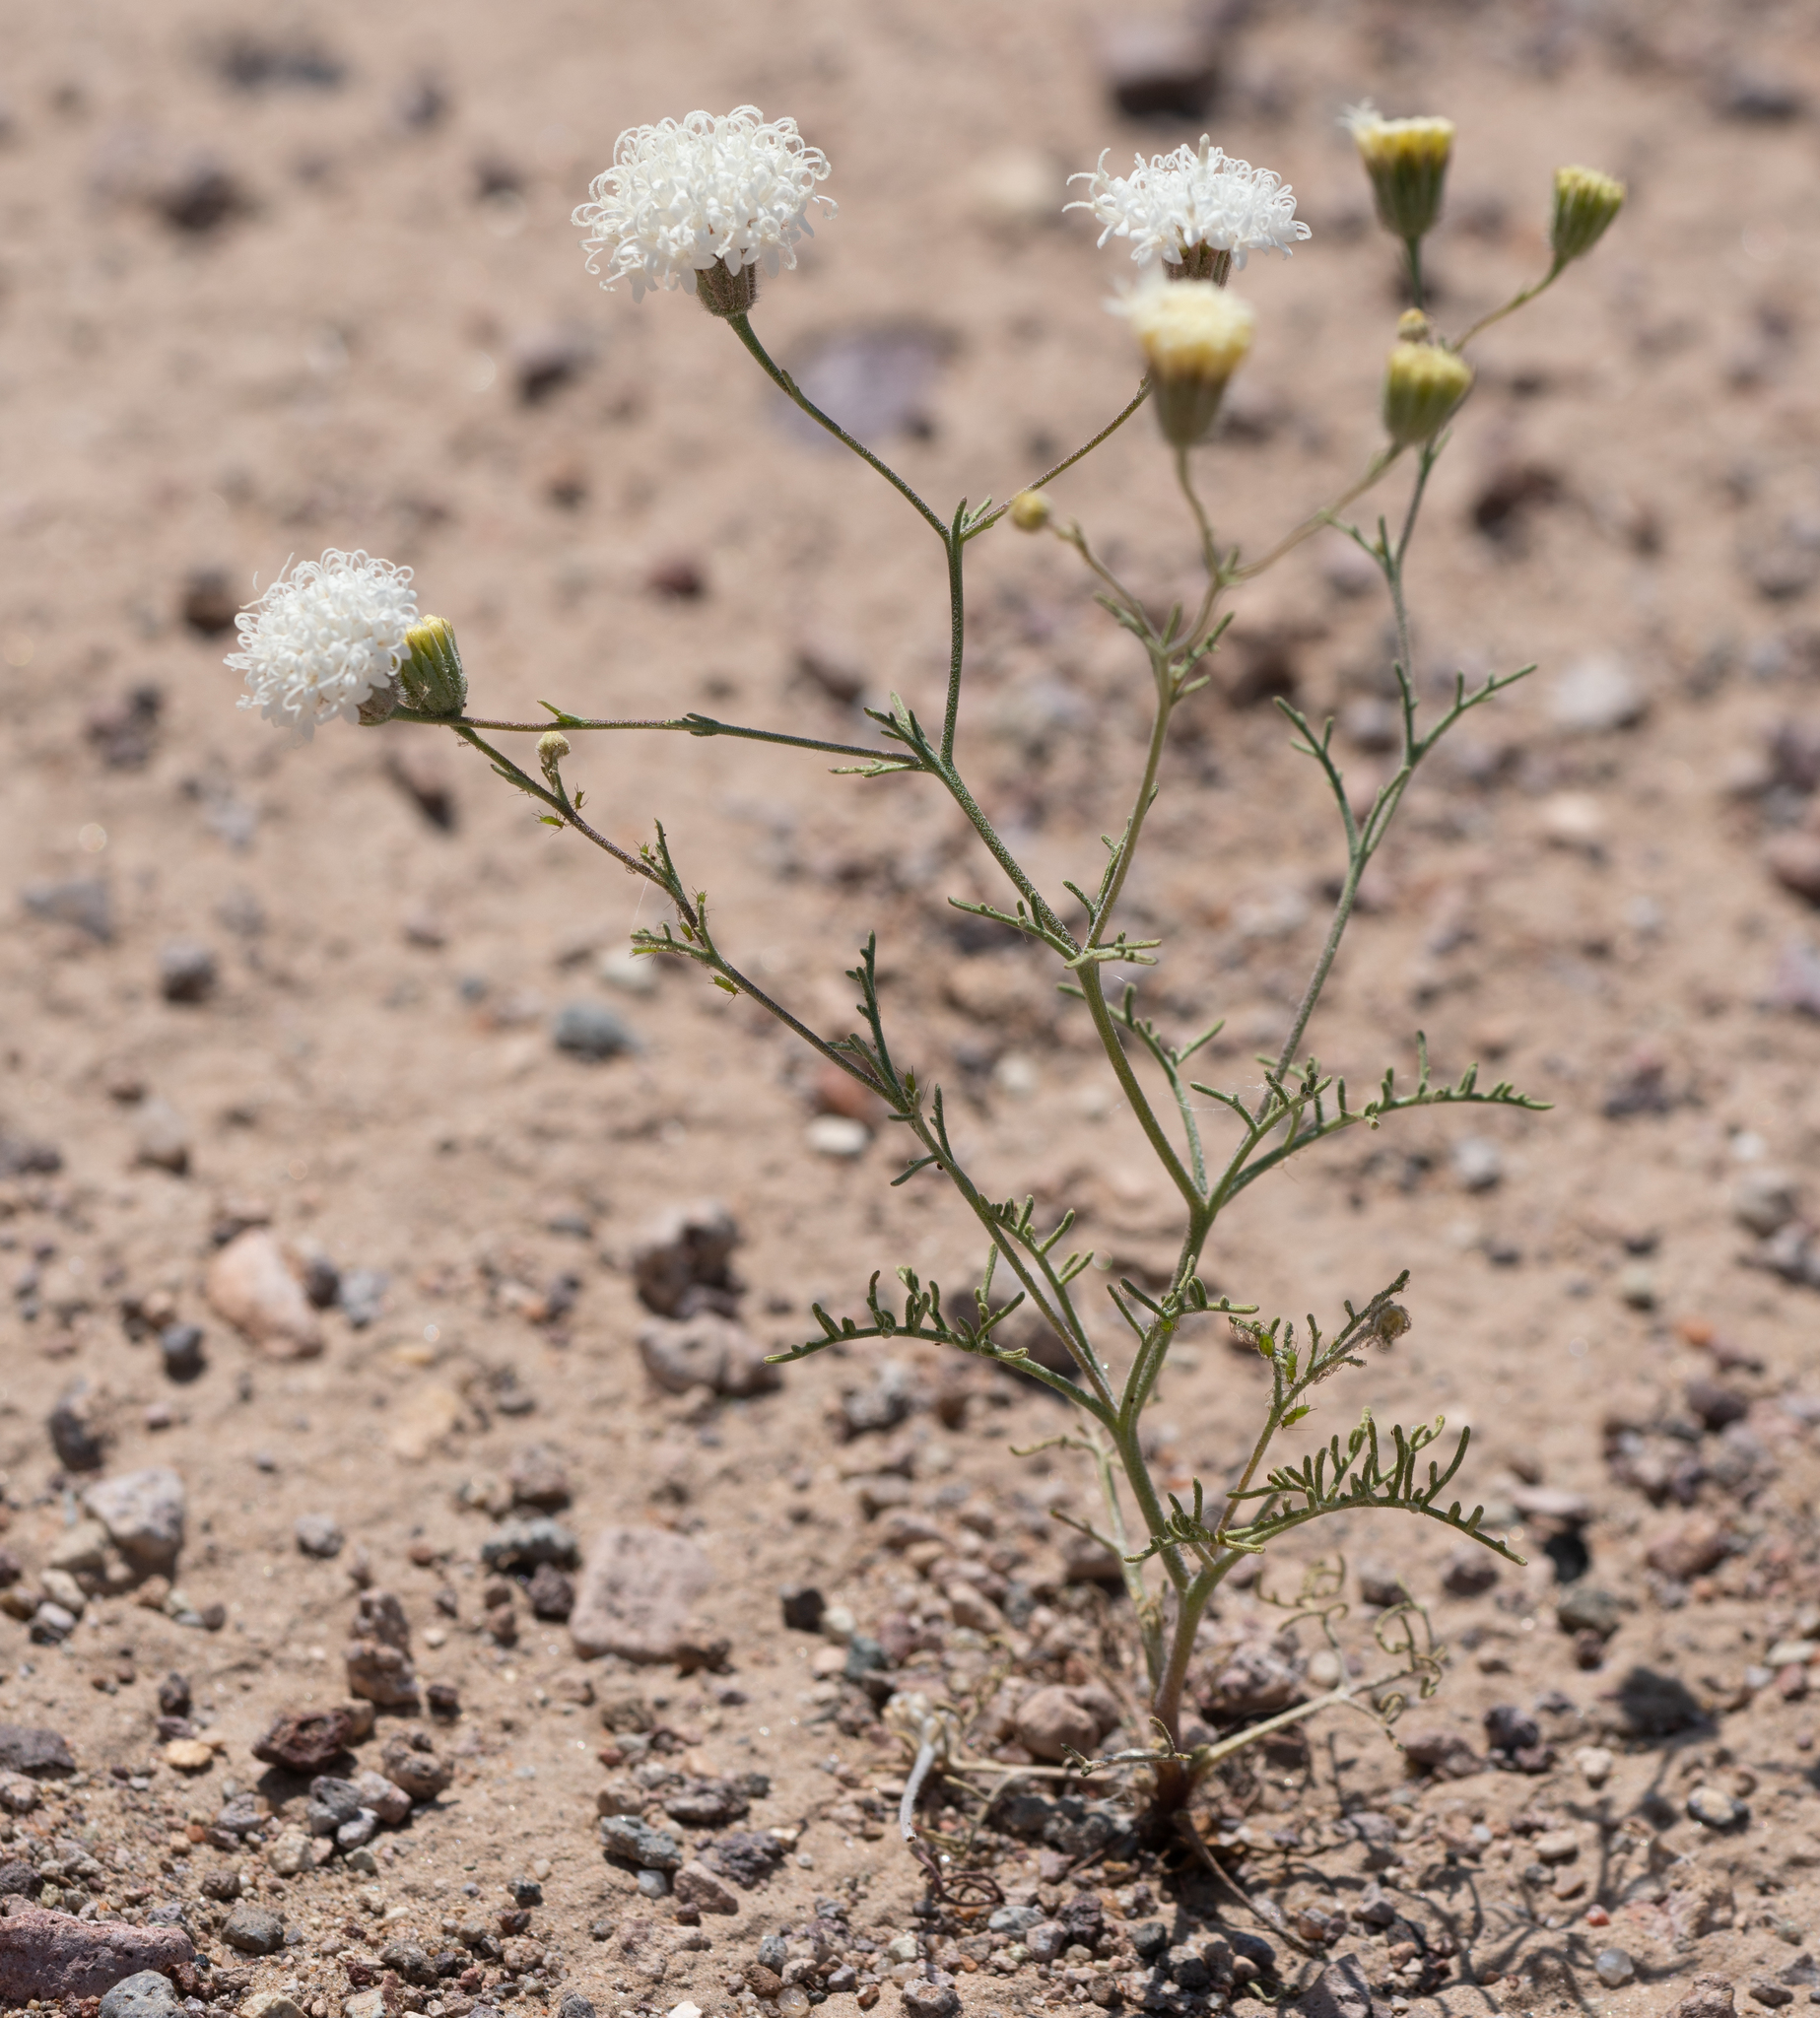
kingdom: Plantae
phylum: Tracheophyta
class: Magnoliopsida
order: Asterales
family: Asteraceae
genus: Chaenactis
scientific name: Chaenactis carphoclinia
